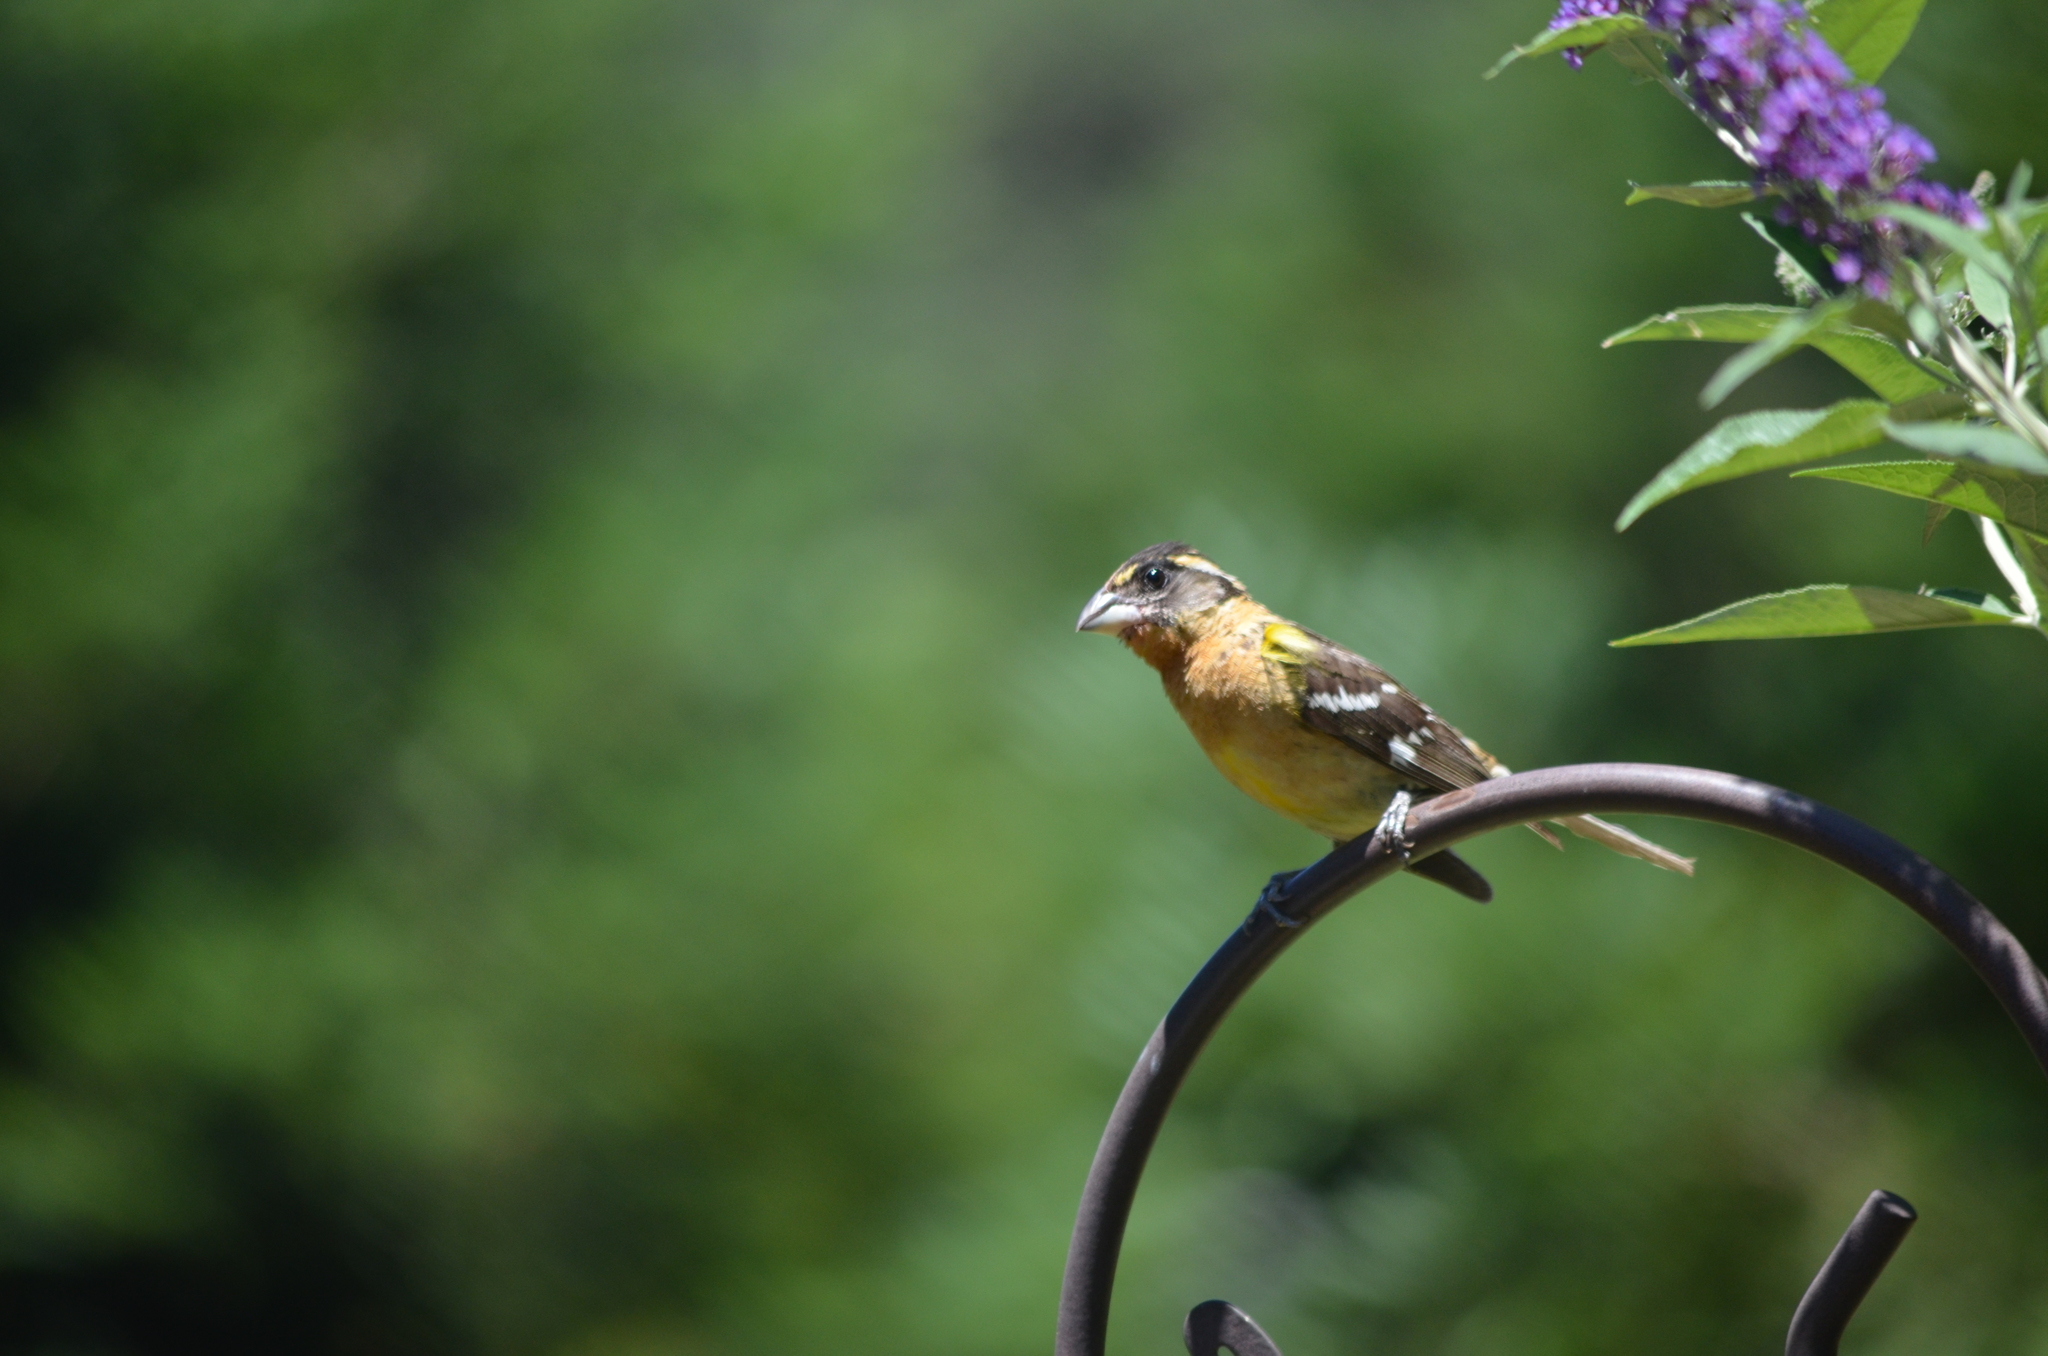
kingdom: Animalia
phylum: Chordata
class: Aves
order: Passeriformes
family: Cardinalidae
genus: Pheucticus
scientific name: Pheucticus melanocephalus
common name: Black-headed grosbeak
